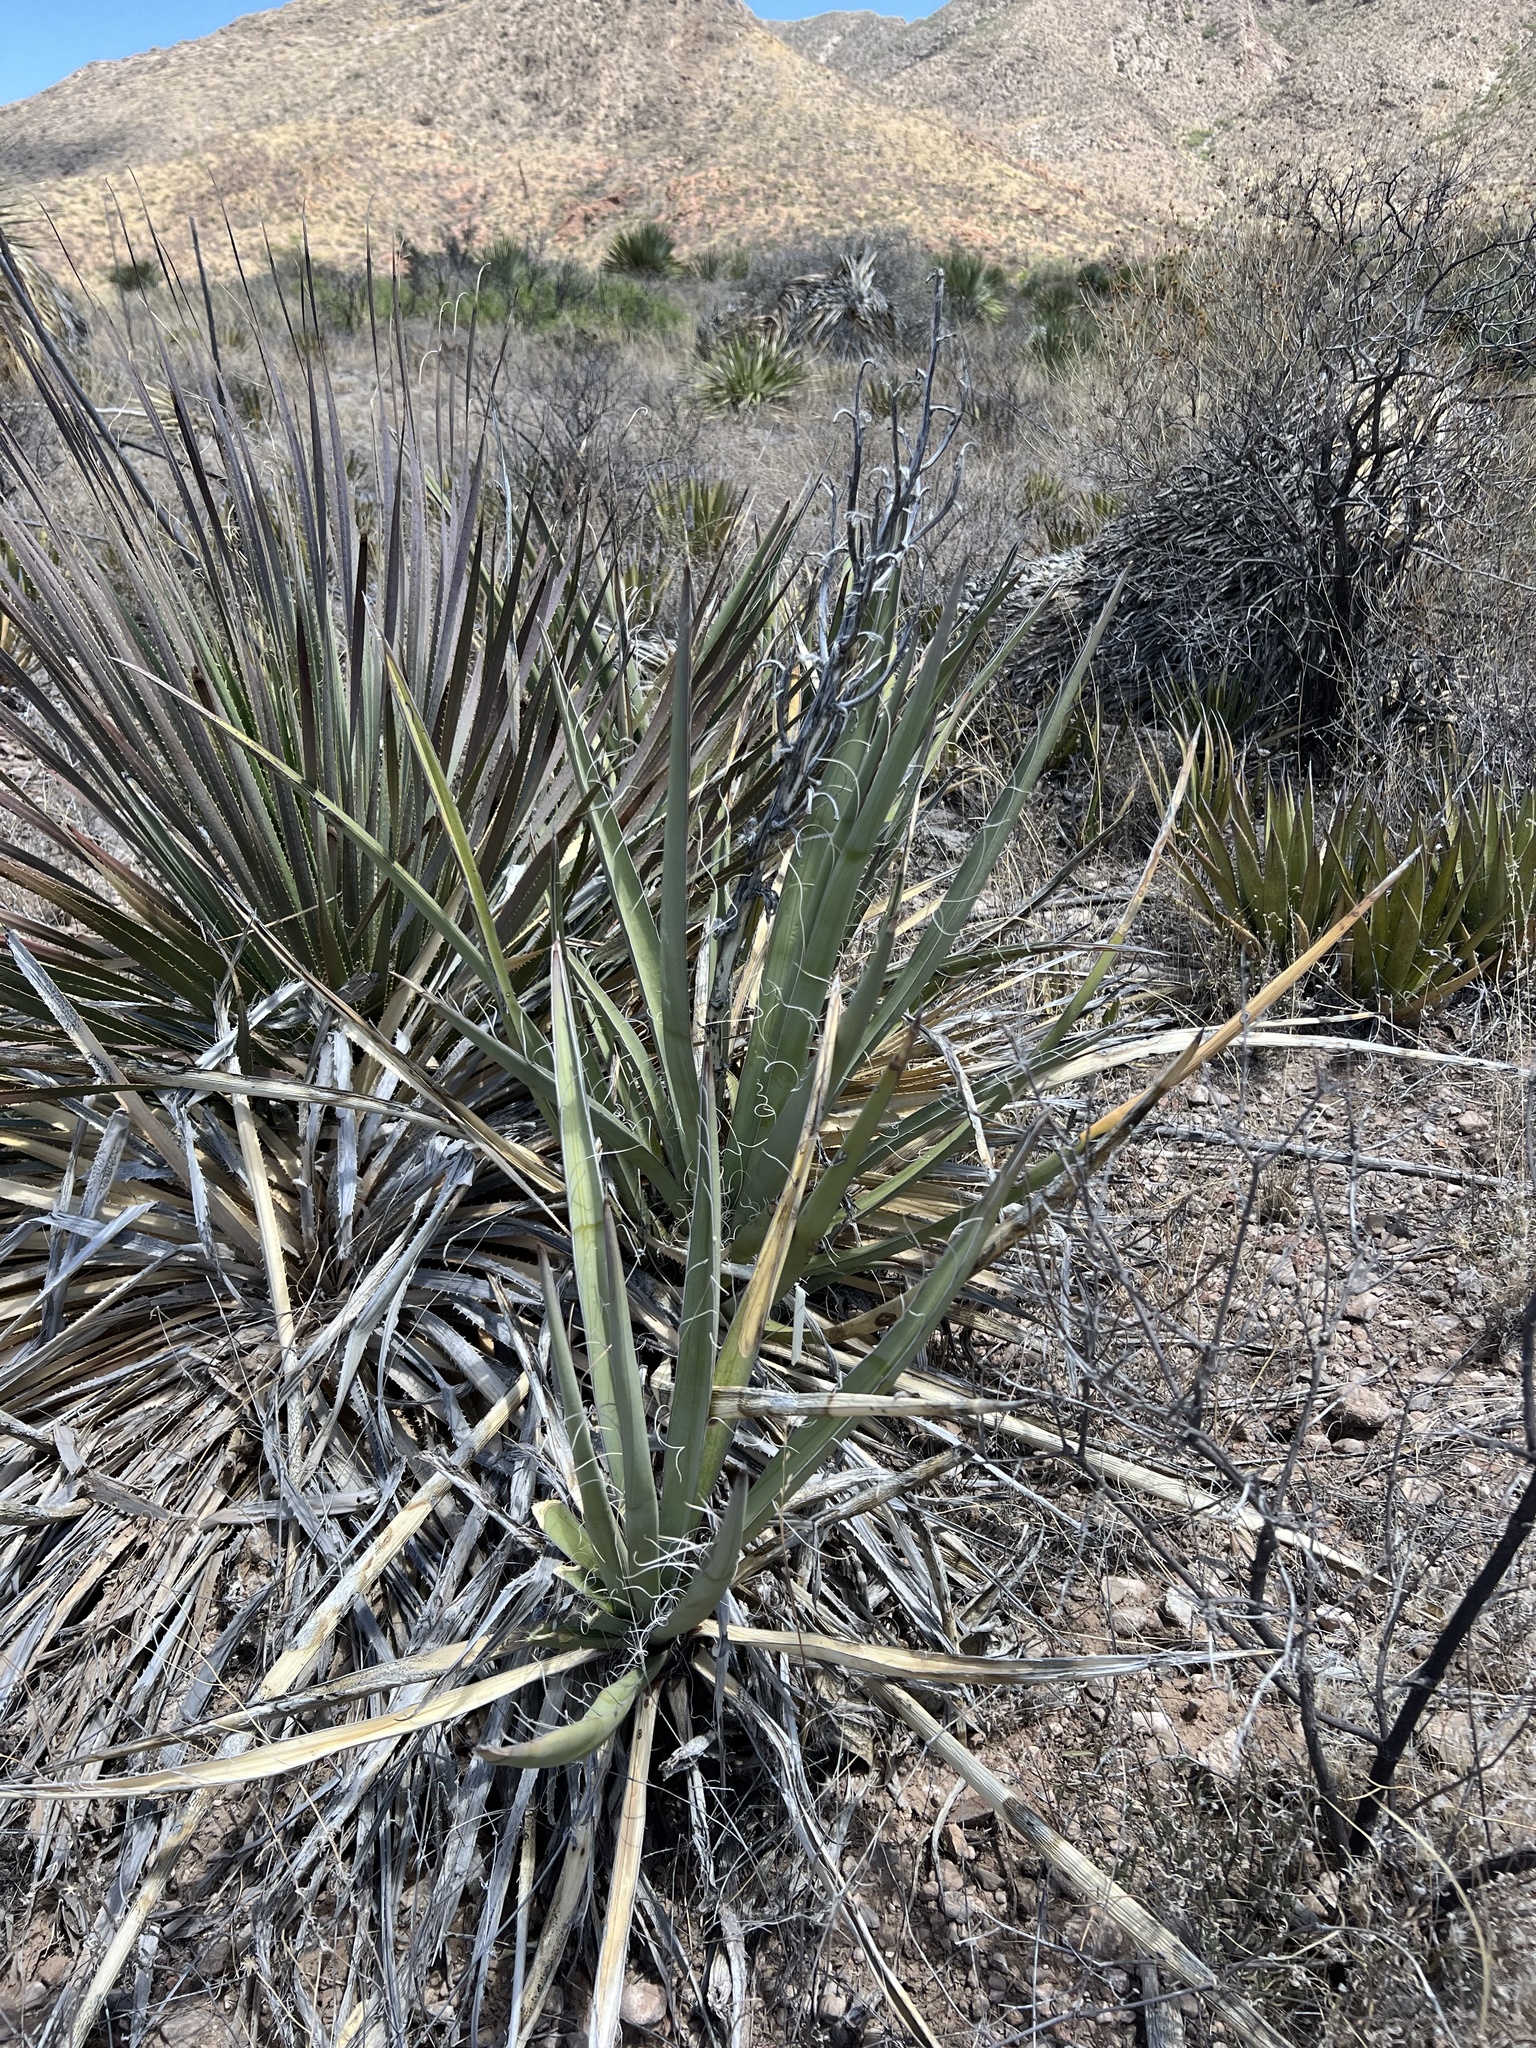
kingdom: Plantae
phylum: Tracheophyta
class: Liliopsida
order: Asparagales
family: Asparagaceae
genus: Yucca
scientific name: Yucca baccata
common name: Banana yucca
